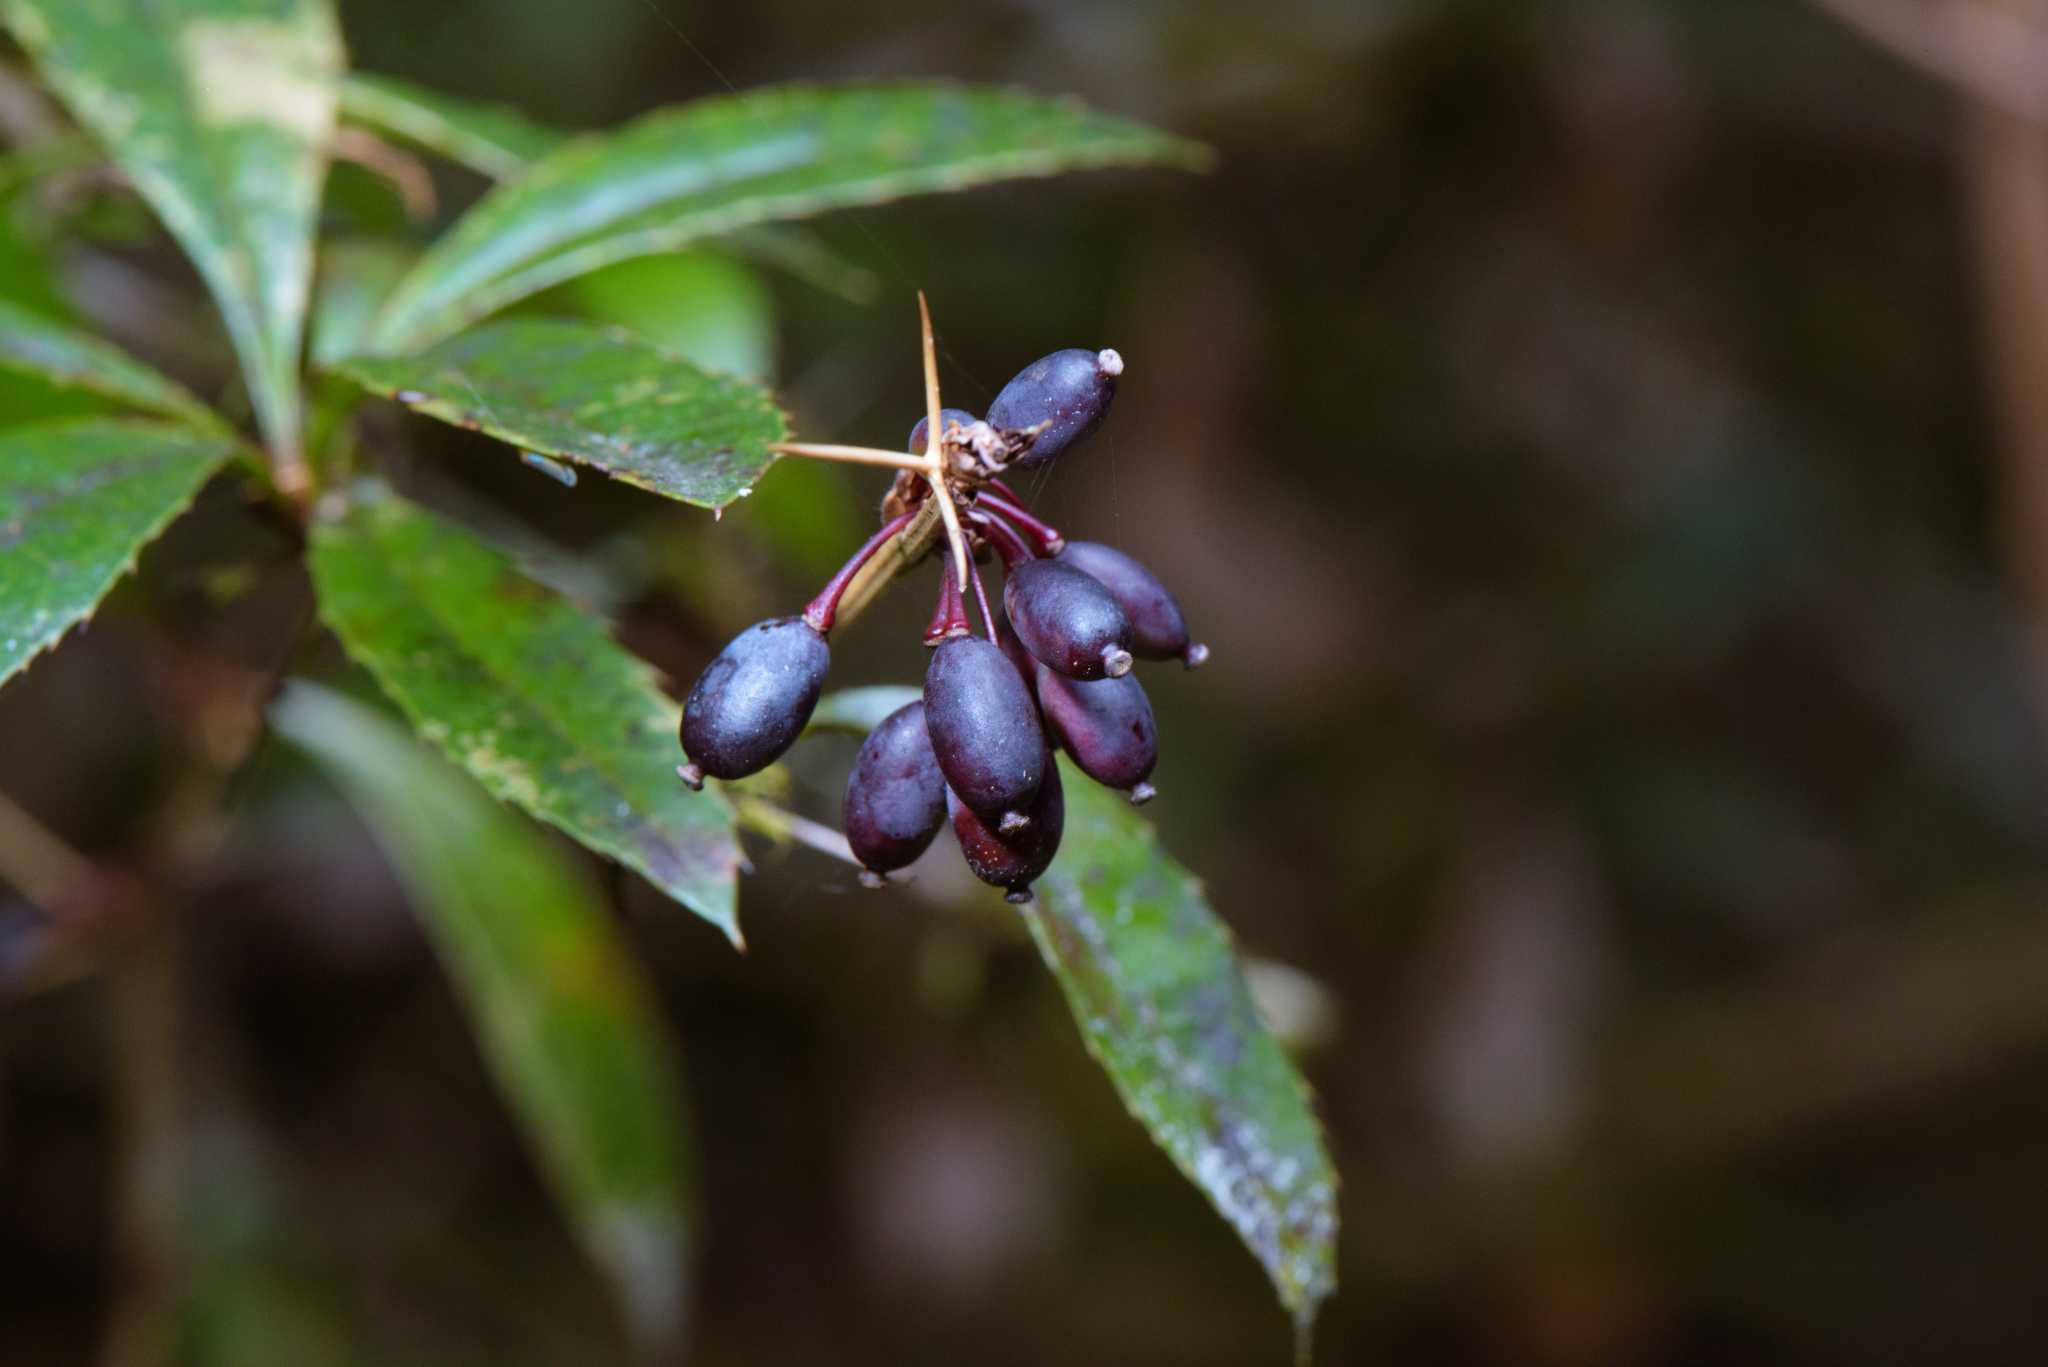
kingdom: Plantae
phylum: Tracheophyta
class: Magnoliopsida
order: Ranunculales
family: Berberidaceae
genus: Berberis
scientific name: Berberis kawakamii
